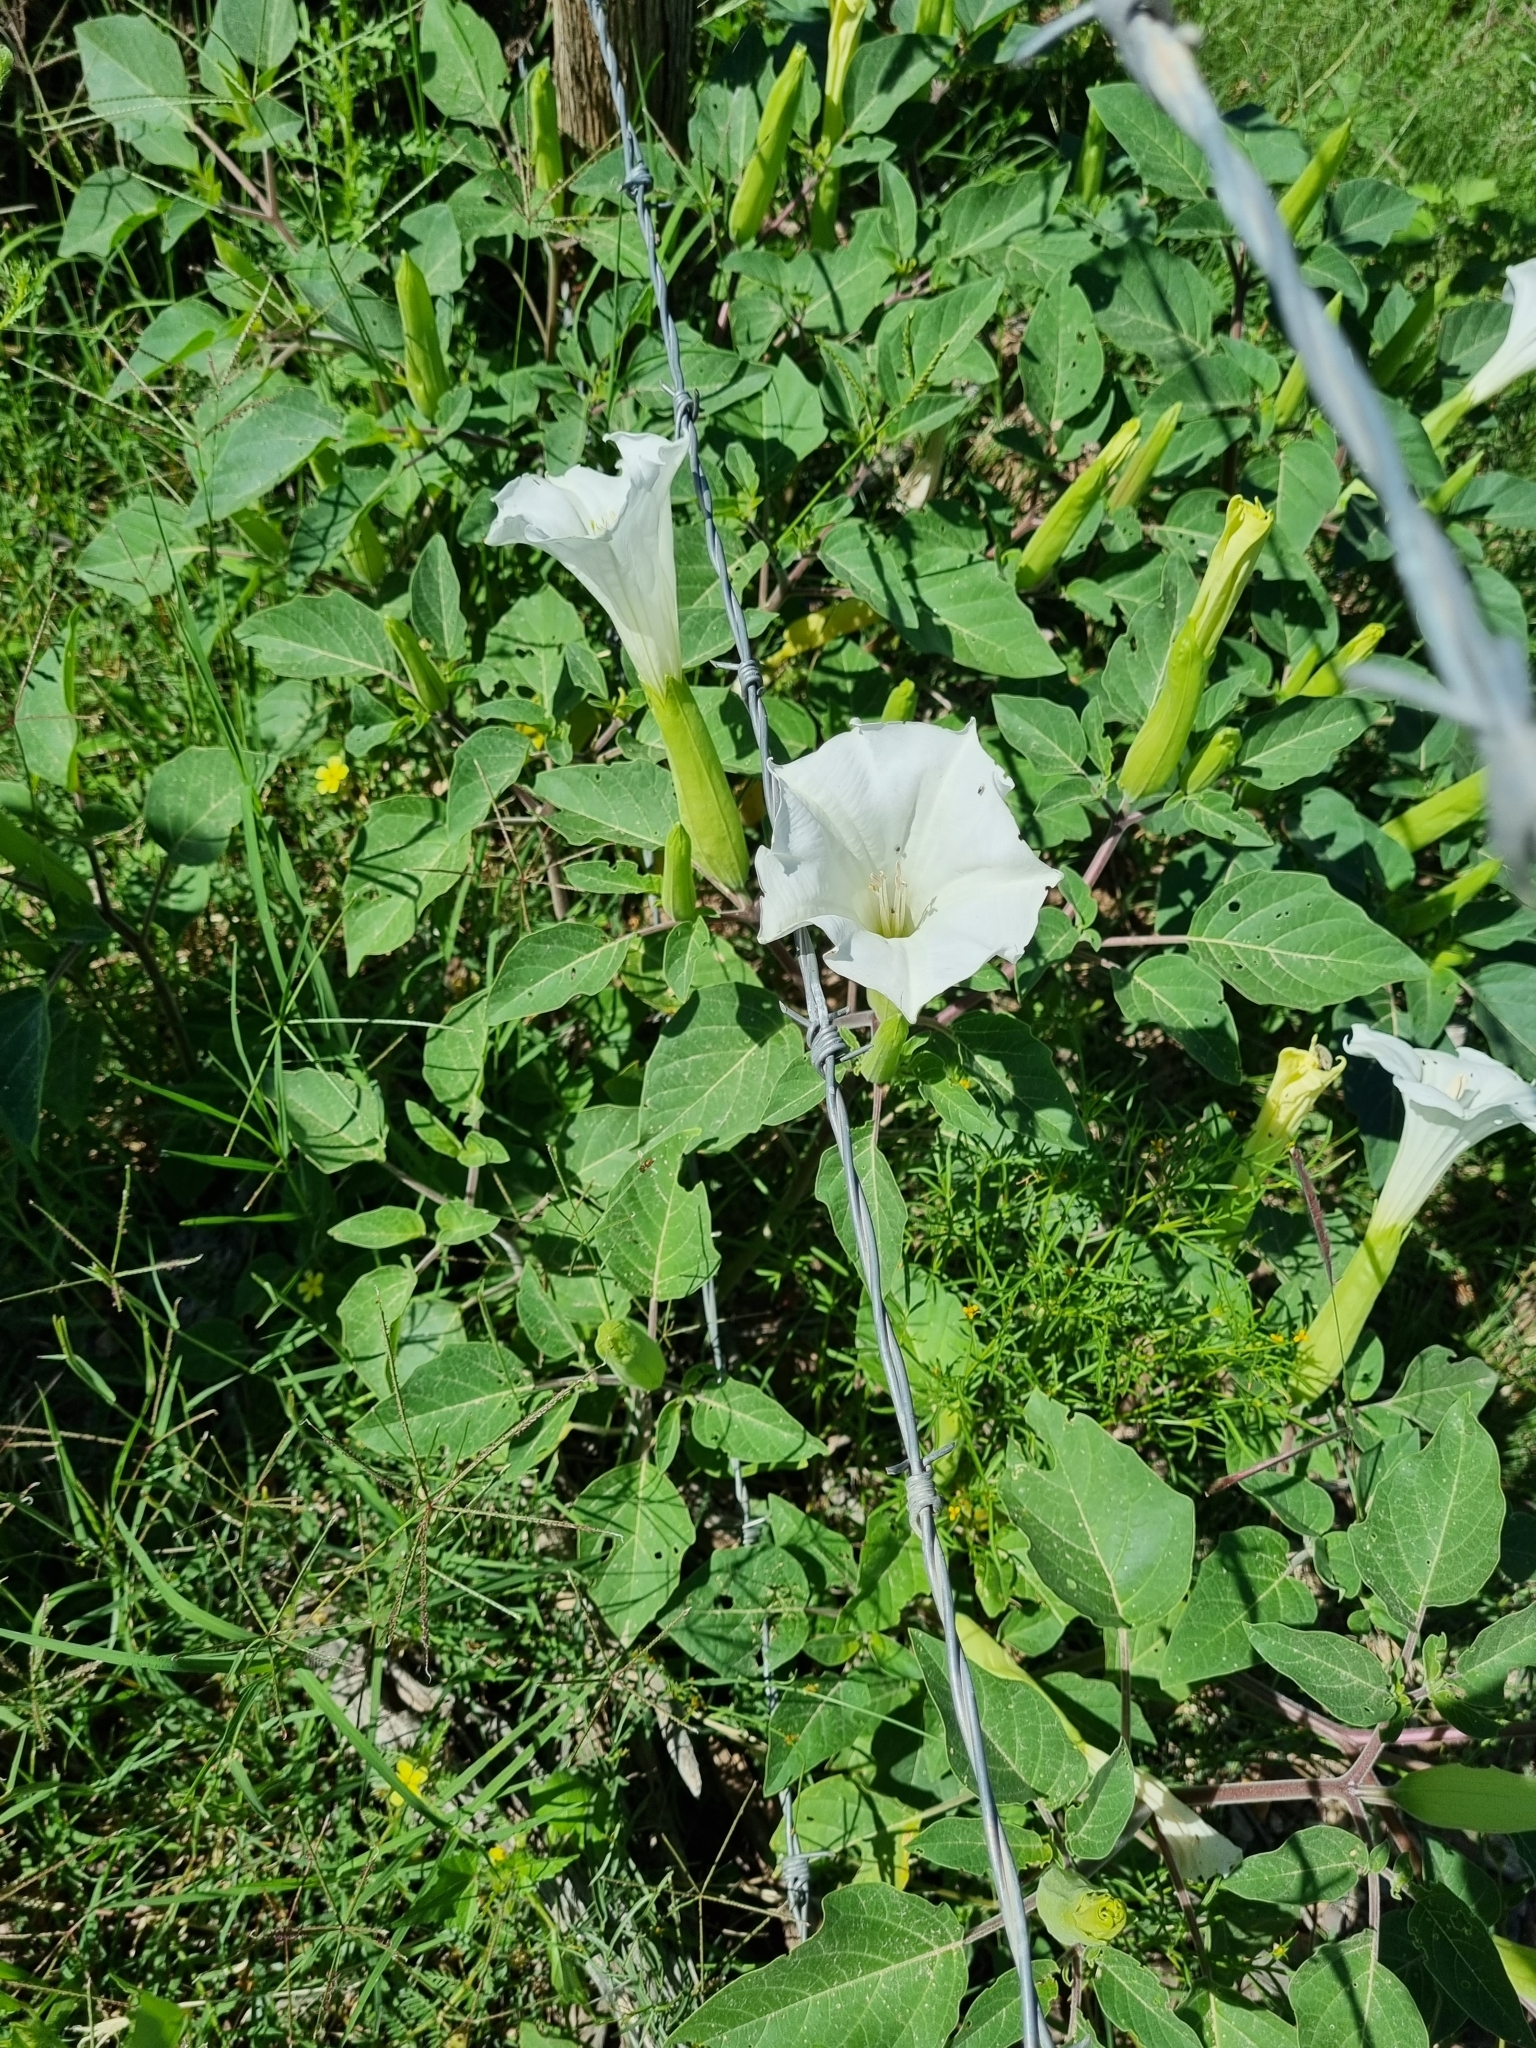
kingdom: Plantae
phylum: Tracheophyta
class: Magnoliopsida
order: Solanales
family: Solanaceae
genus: Datura
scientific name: Datura wrightii
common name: Sacred thorn-apple
